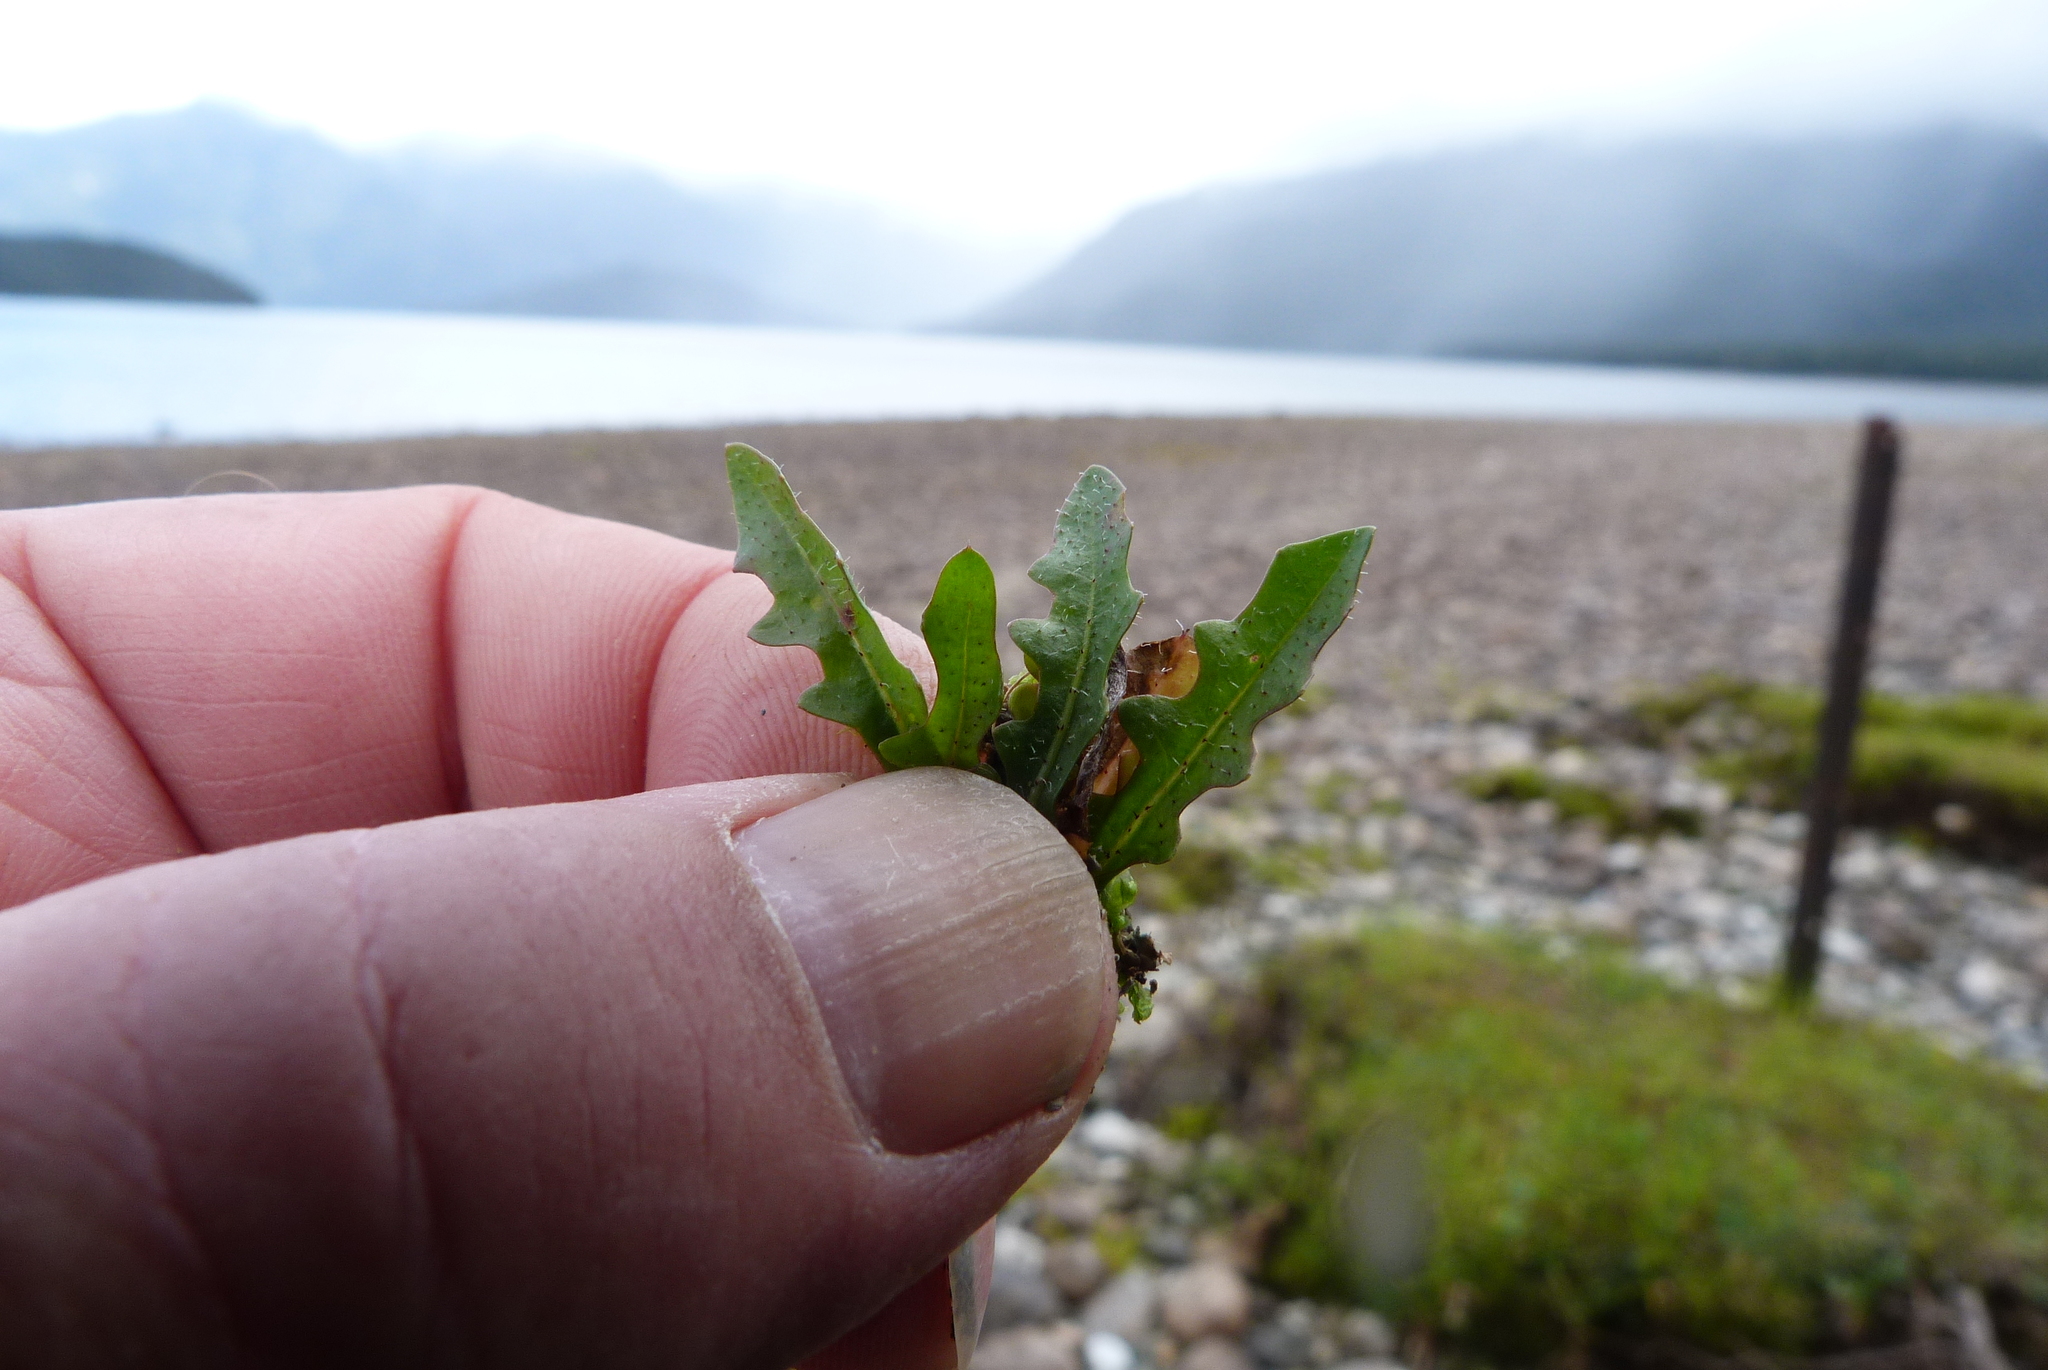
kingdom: Plantae
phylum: Tracheophyta
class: Magnoliopsida
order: Asterales
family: Asteraceae
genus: Thrincia
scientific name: Thrincia saxatilis
